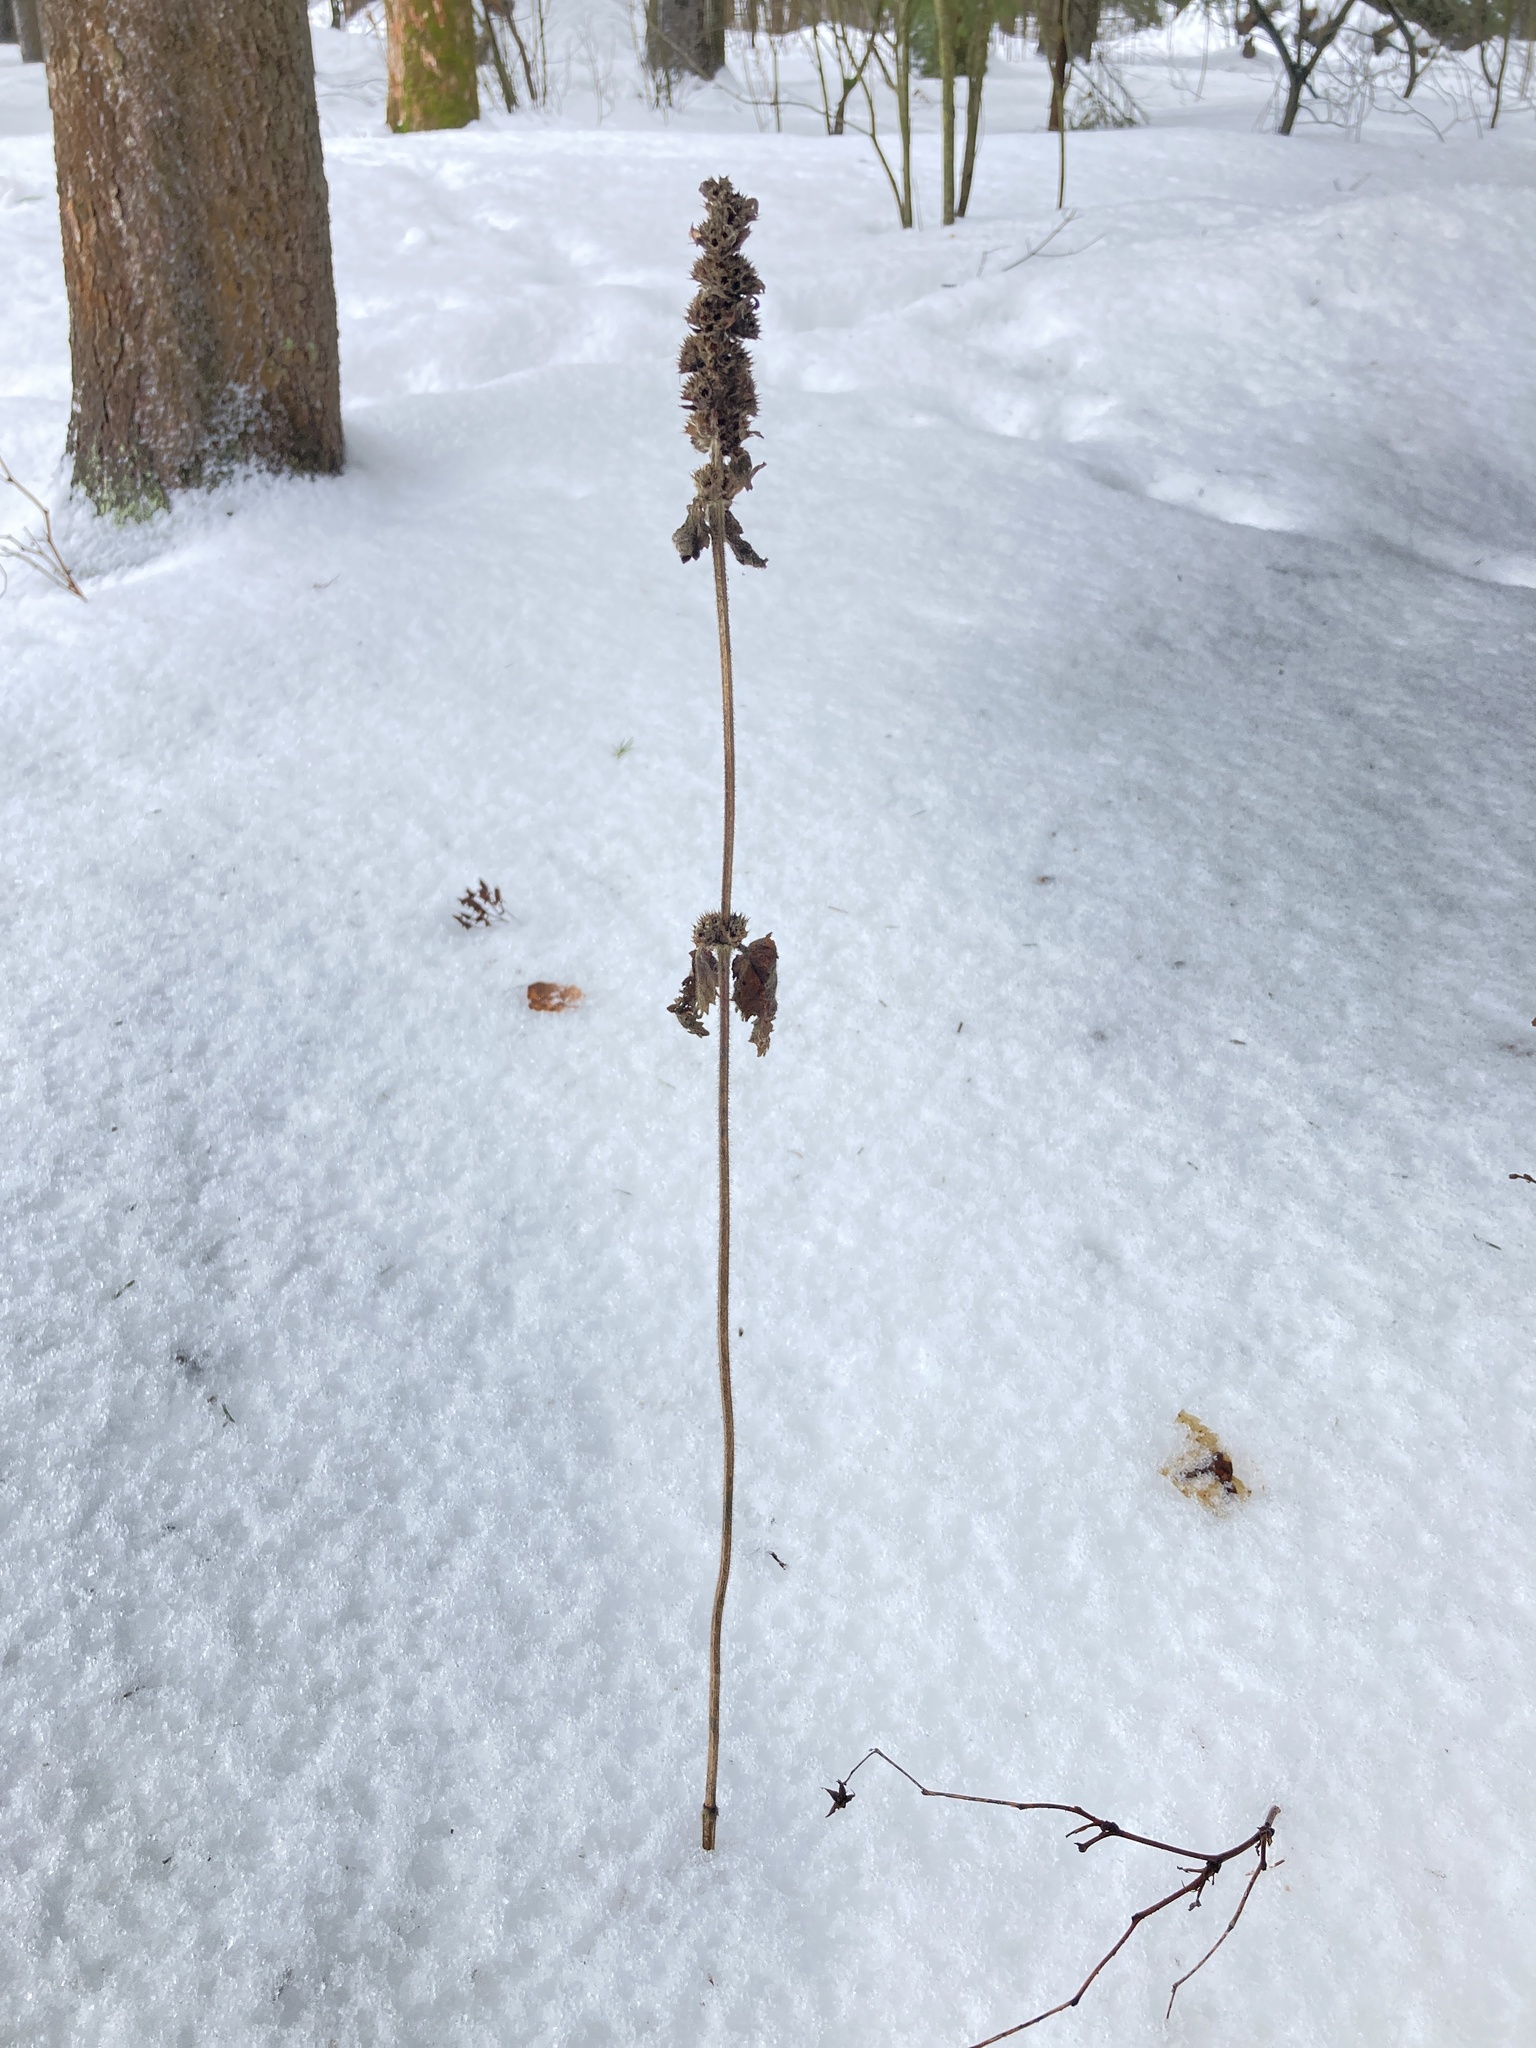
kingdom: Plantae
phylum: Tracheophyta
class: Magnoliopsida
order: Lamiales
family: Lamiaceae
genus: Betonica
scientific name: Betonica officinalis
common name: Bishop's-wort
